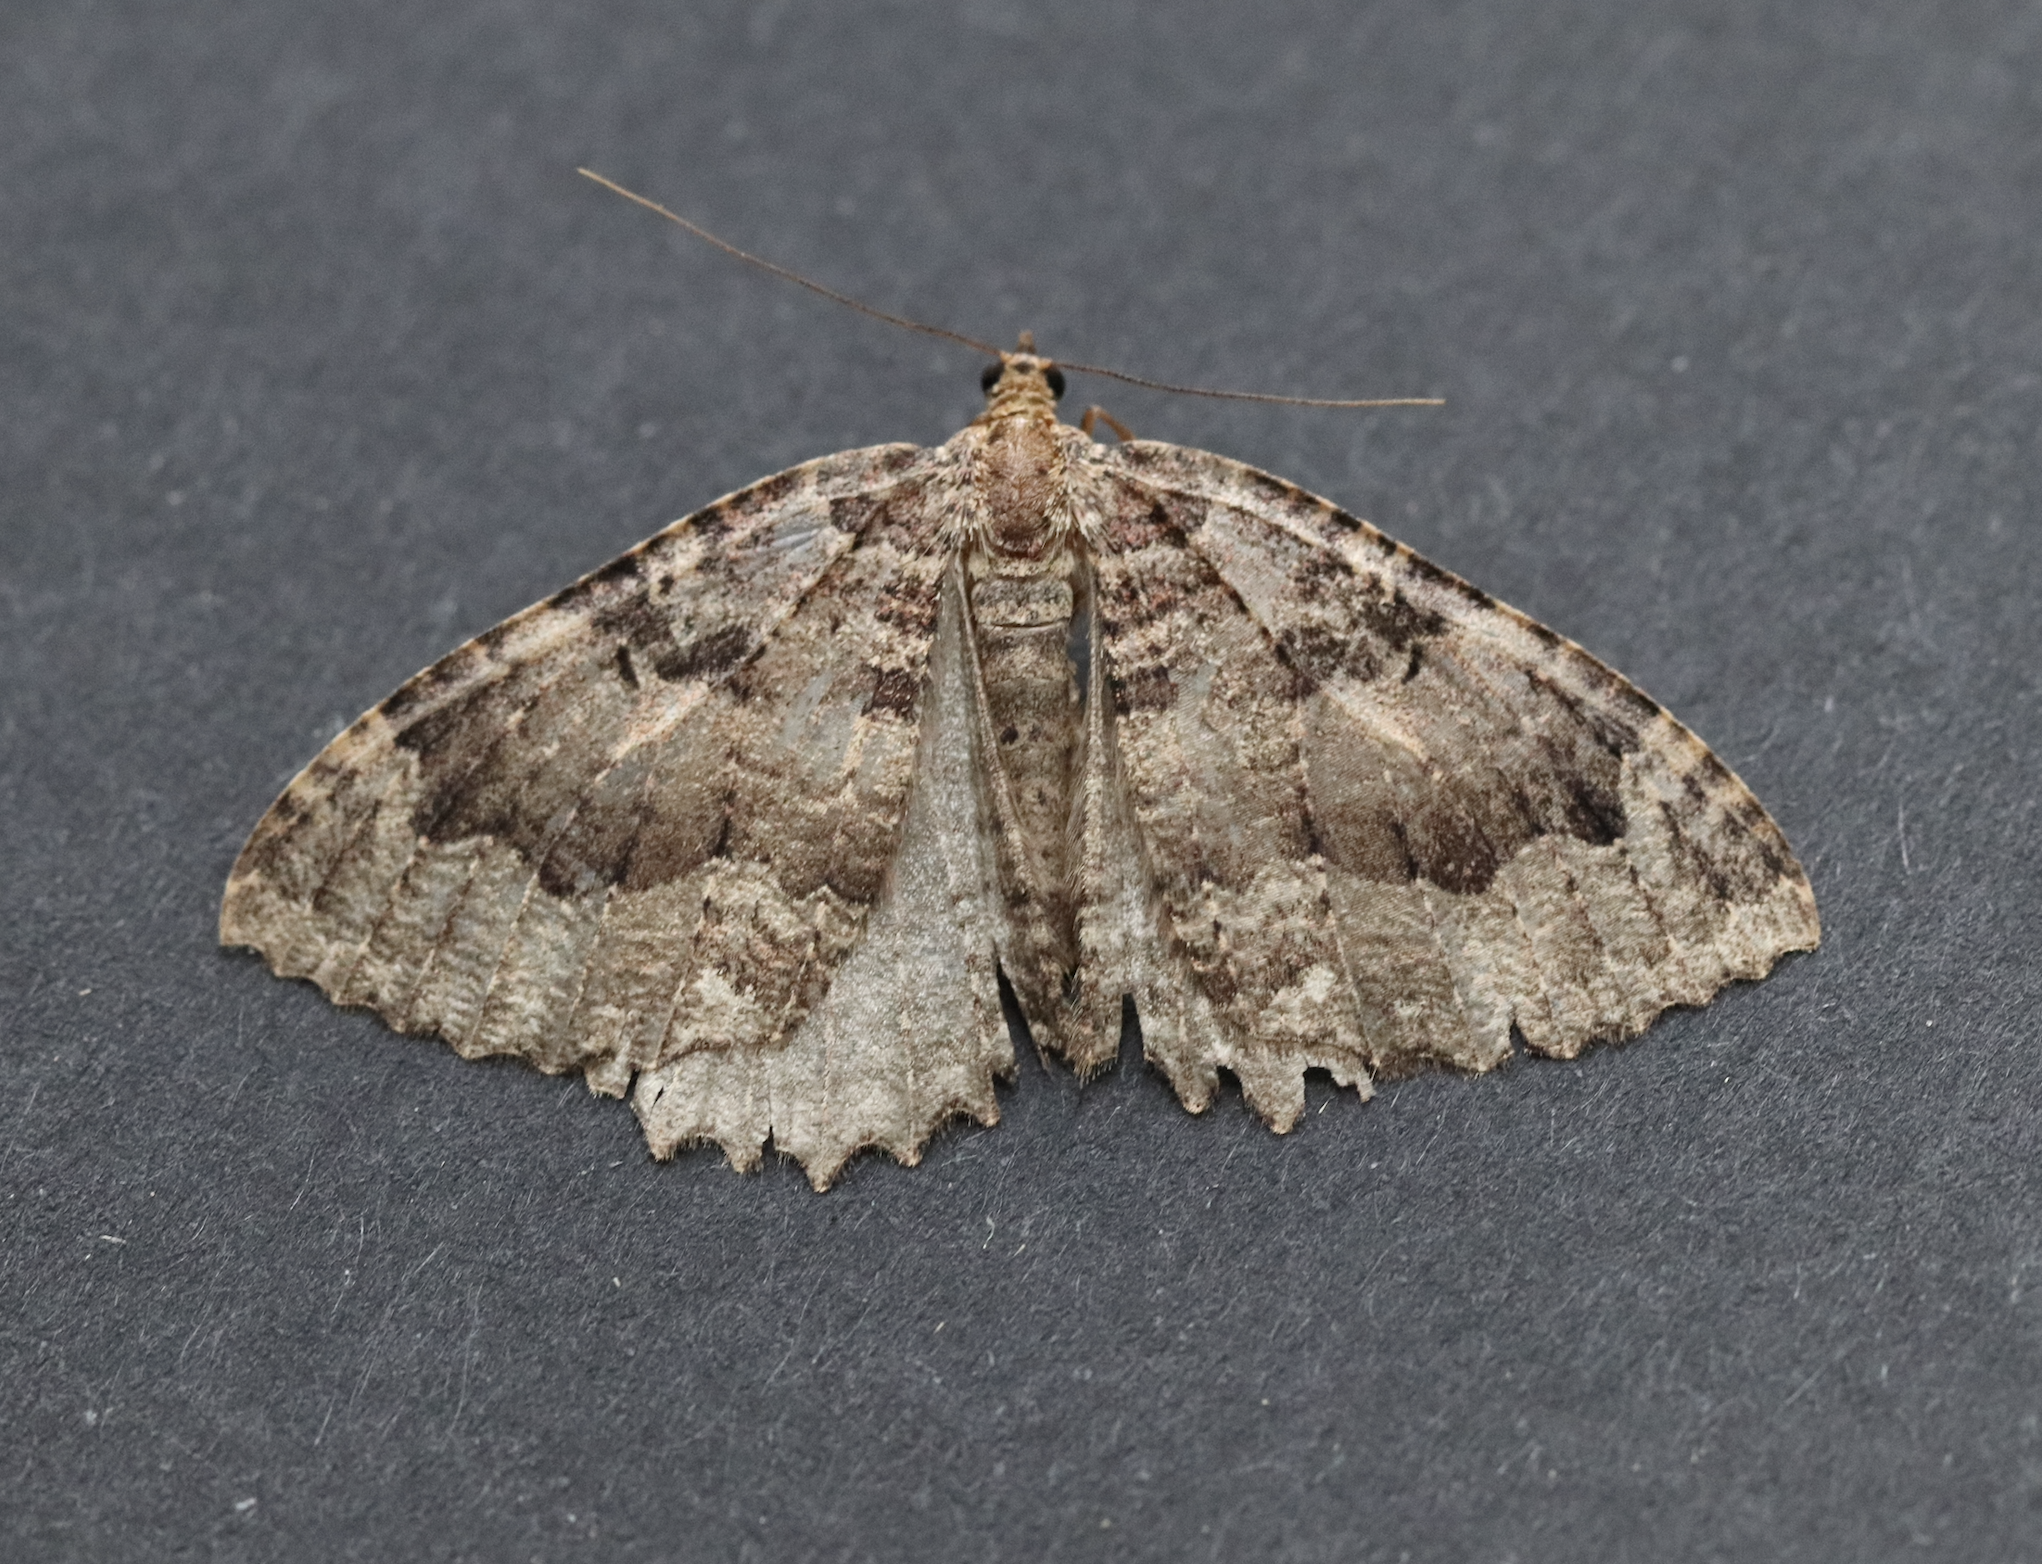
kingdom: Animalia
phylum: Arthropoda
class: Insecta
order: Lepidoptera
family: Geometridae
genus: Triphosa
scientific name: Triphosa dubitata
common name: Tissue
